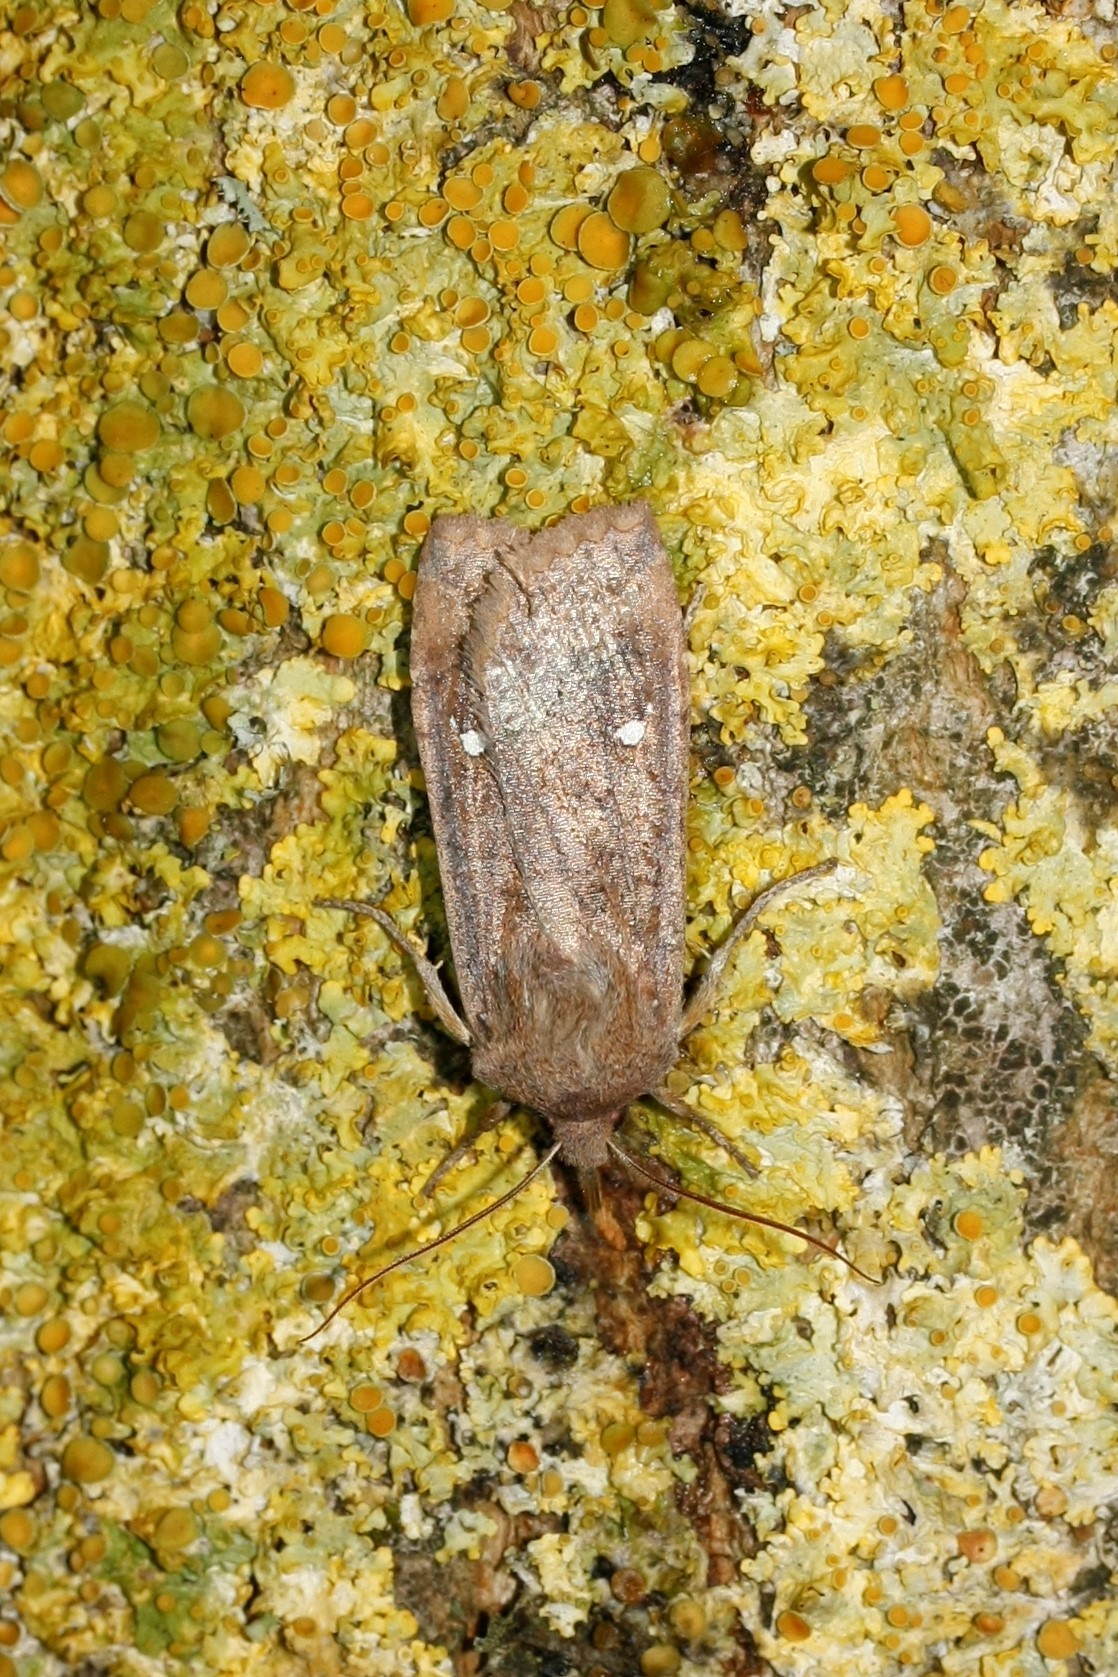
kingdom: Animalia
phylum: Arthropoda
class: Insecta
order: Lepidoptera
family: Noctuidae
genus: Eupsilia
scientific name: Eupsilia transversa
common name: Satellite
